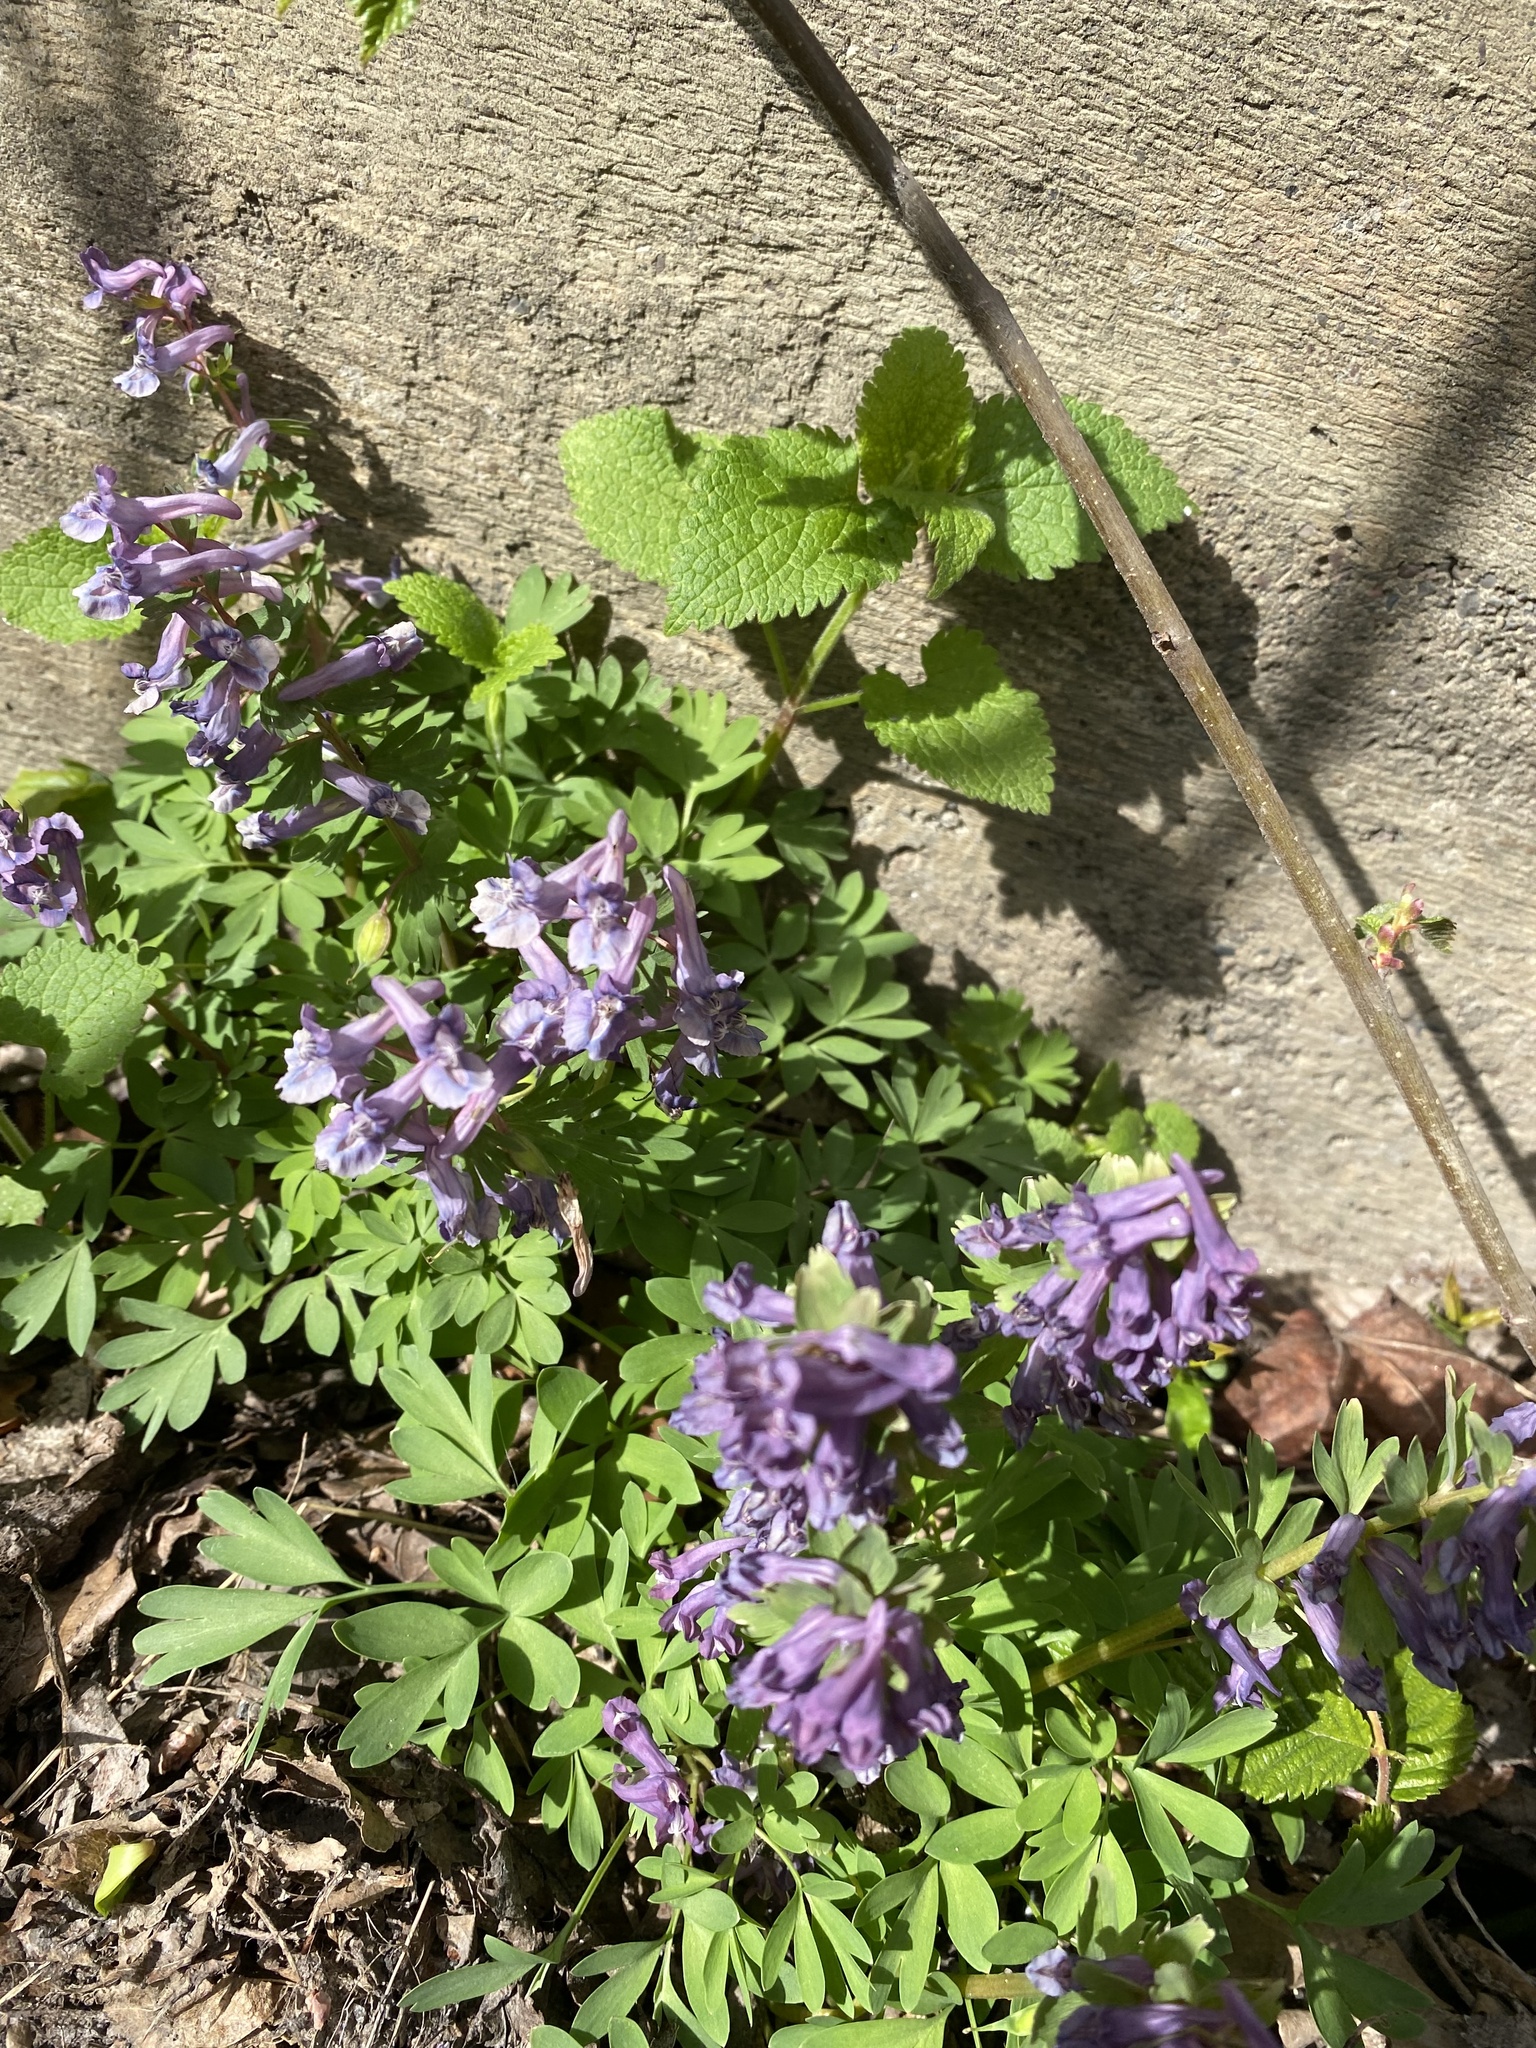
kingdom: Plantae
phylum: Tracheophyta
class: Magnoliopsida
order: Ranunculales
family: Papaveraceae
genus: Corydalis
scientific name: Corydalis solida
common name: Bird-in-a-bush
